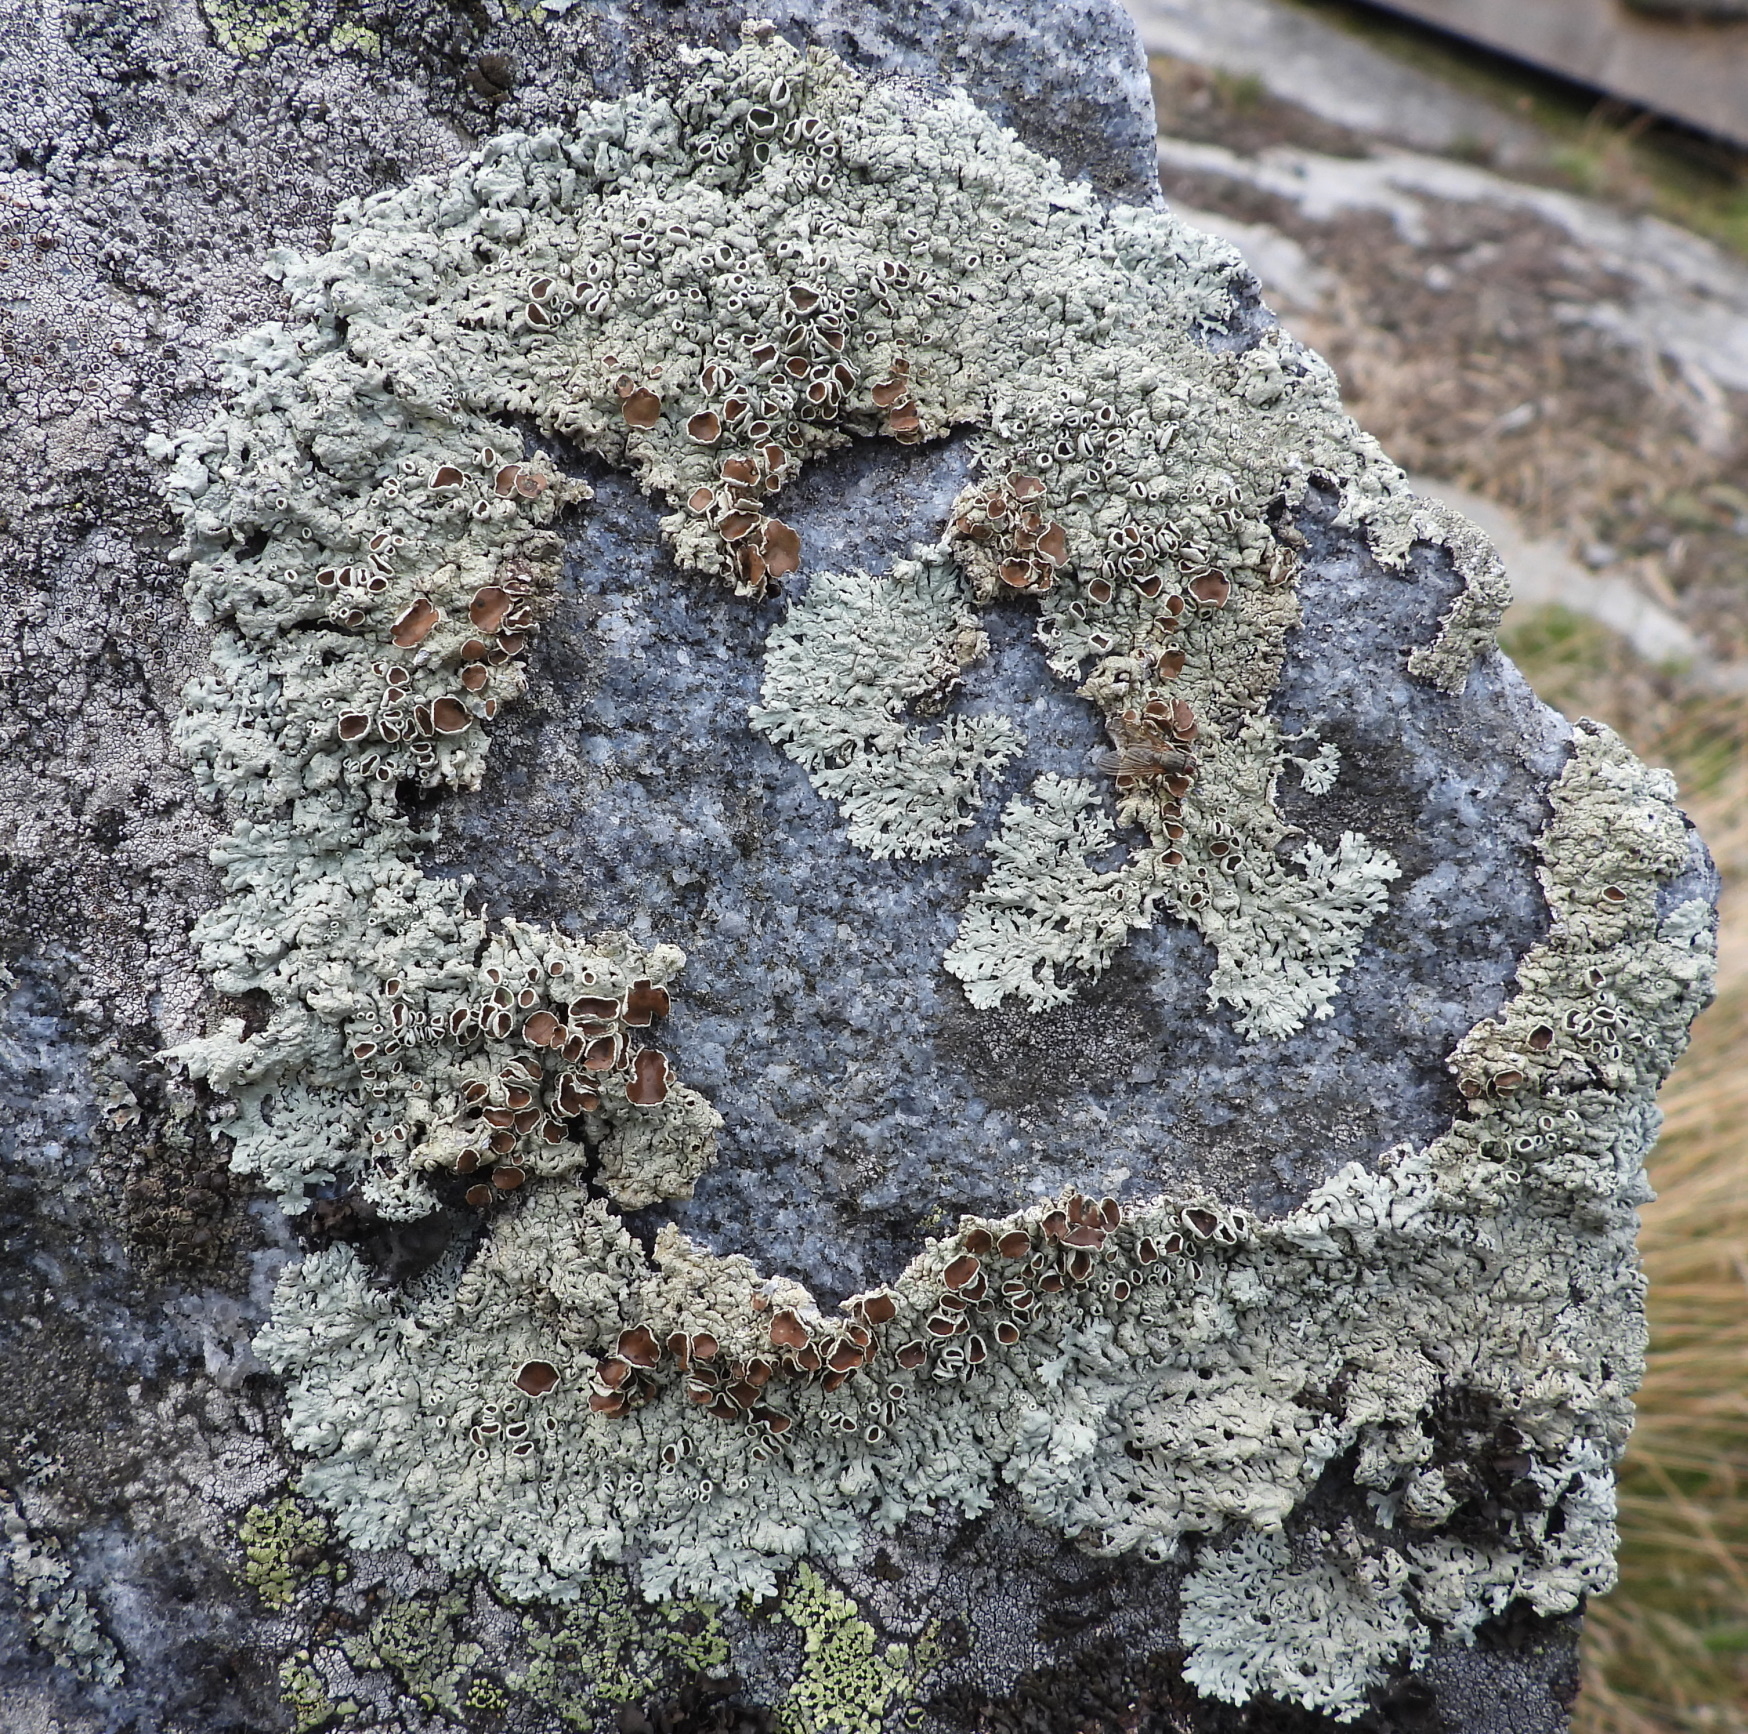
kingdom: Fungi
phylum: Ascomycota
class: Lecanoromycetes
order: Lecanorales
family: Parmeliaceae
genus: Arctoparmelia
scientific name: Arctoparmelia centrifuga
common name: Concentric ring lichen
